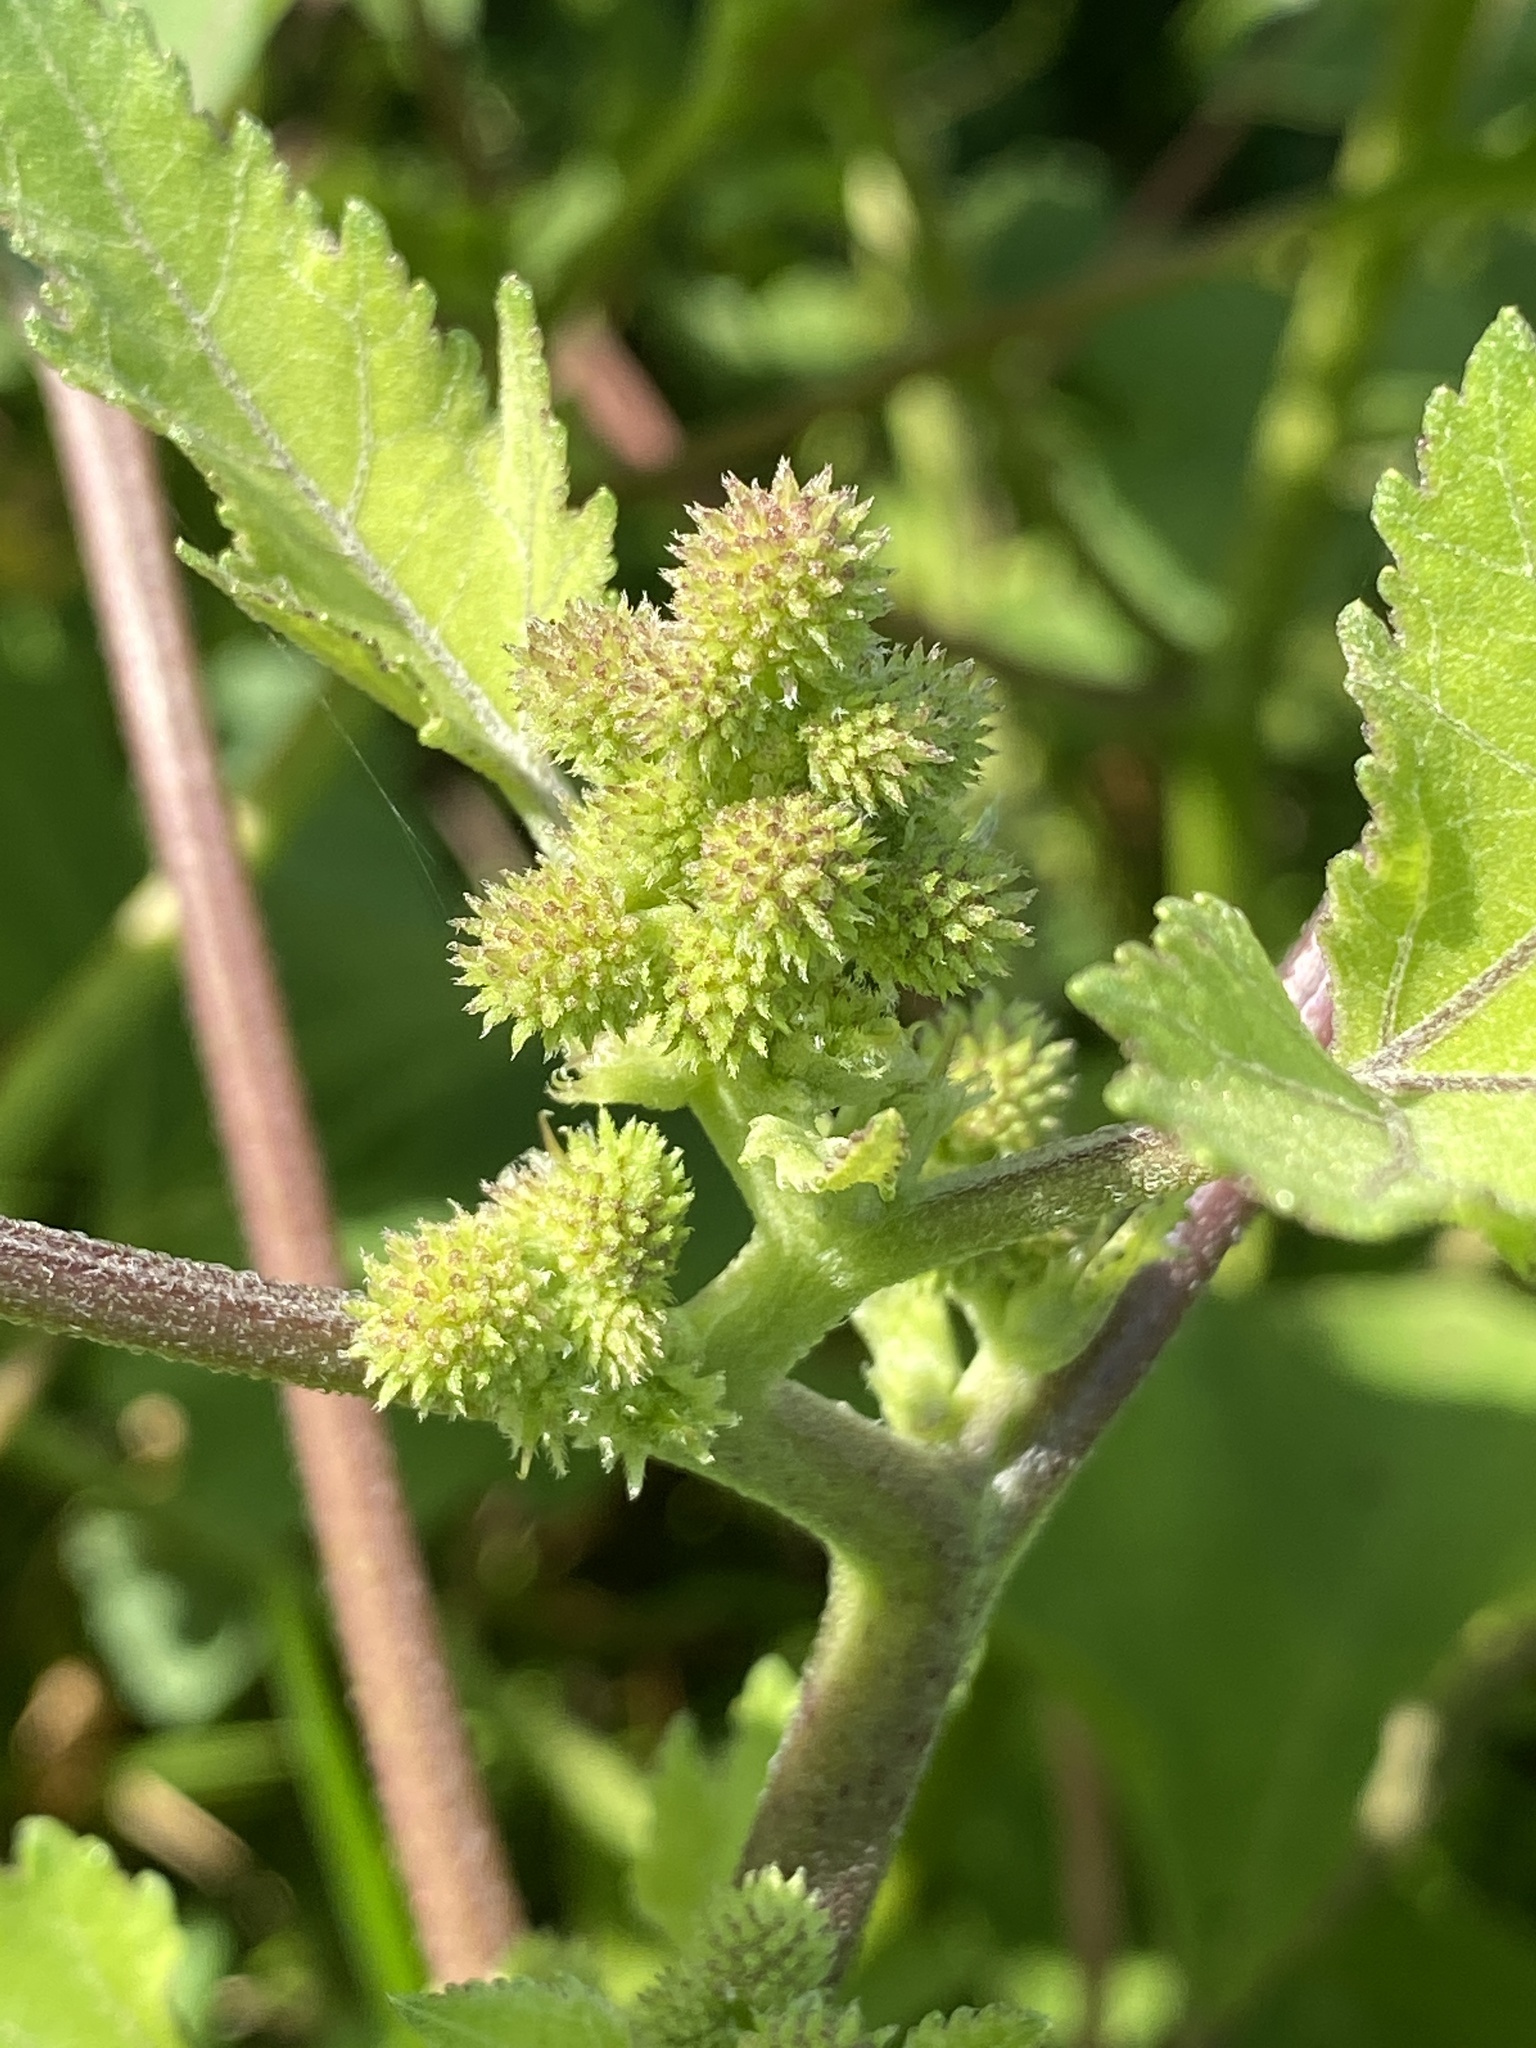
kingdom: Plantae
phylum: Tracheophyta
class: Magnoliopsida
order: Asterales
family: Asteraceae
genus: Xanthium
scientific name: Xanthium strumarium
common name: Rough cocklebur
